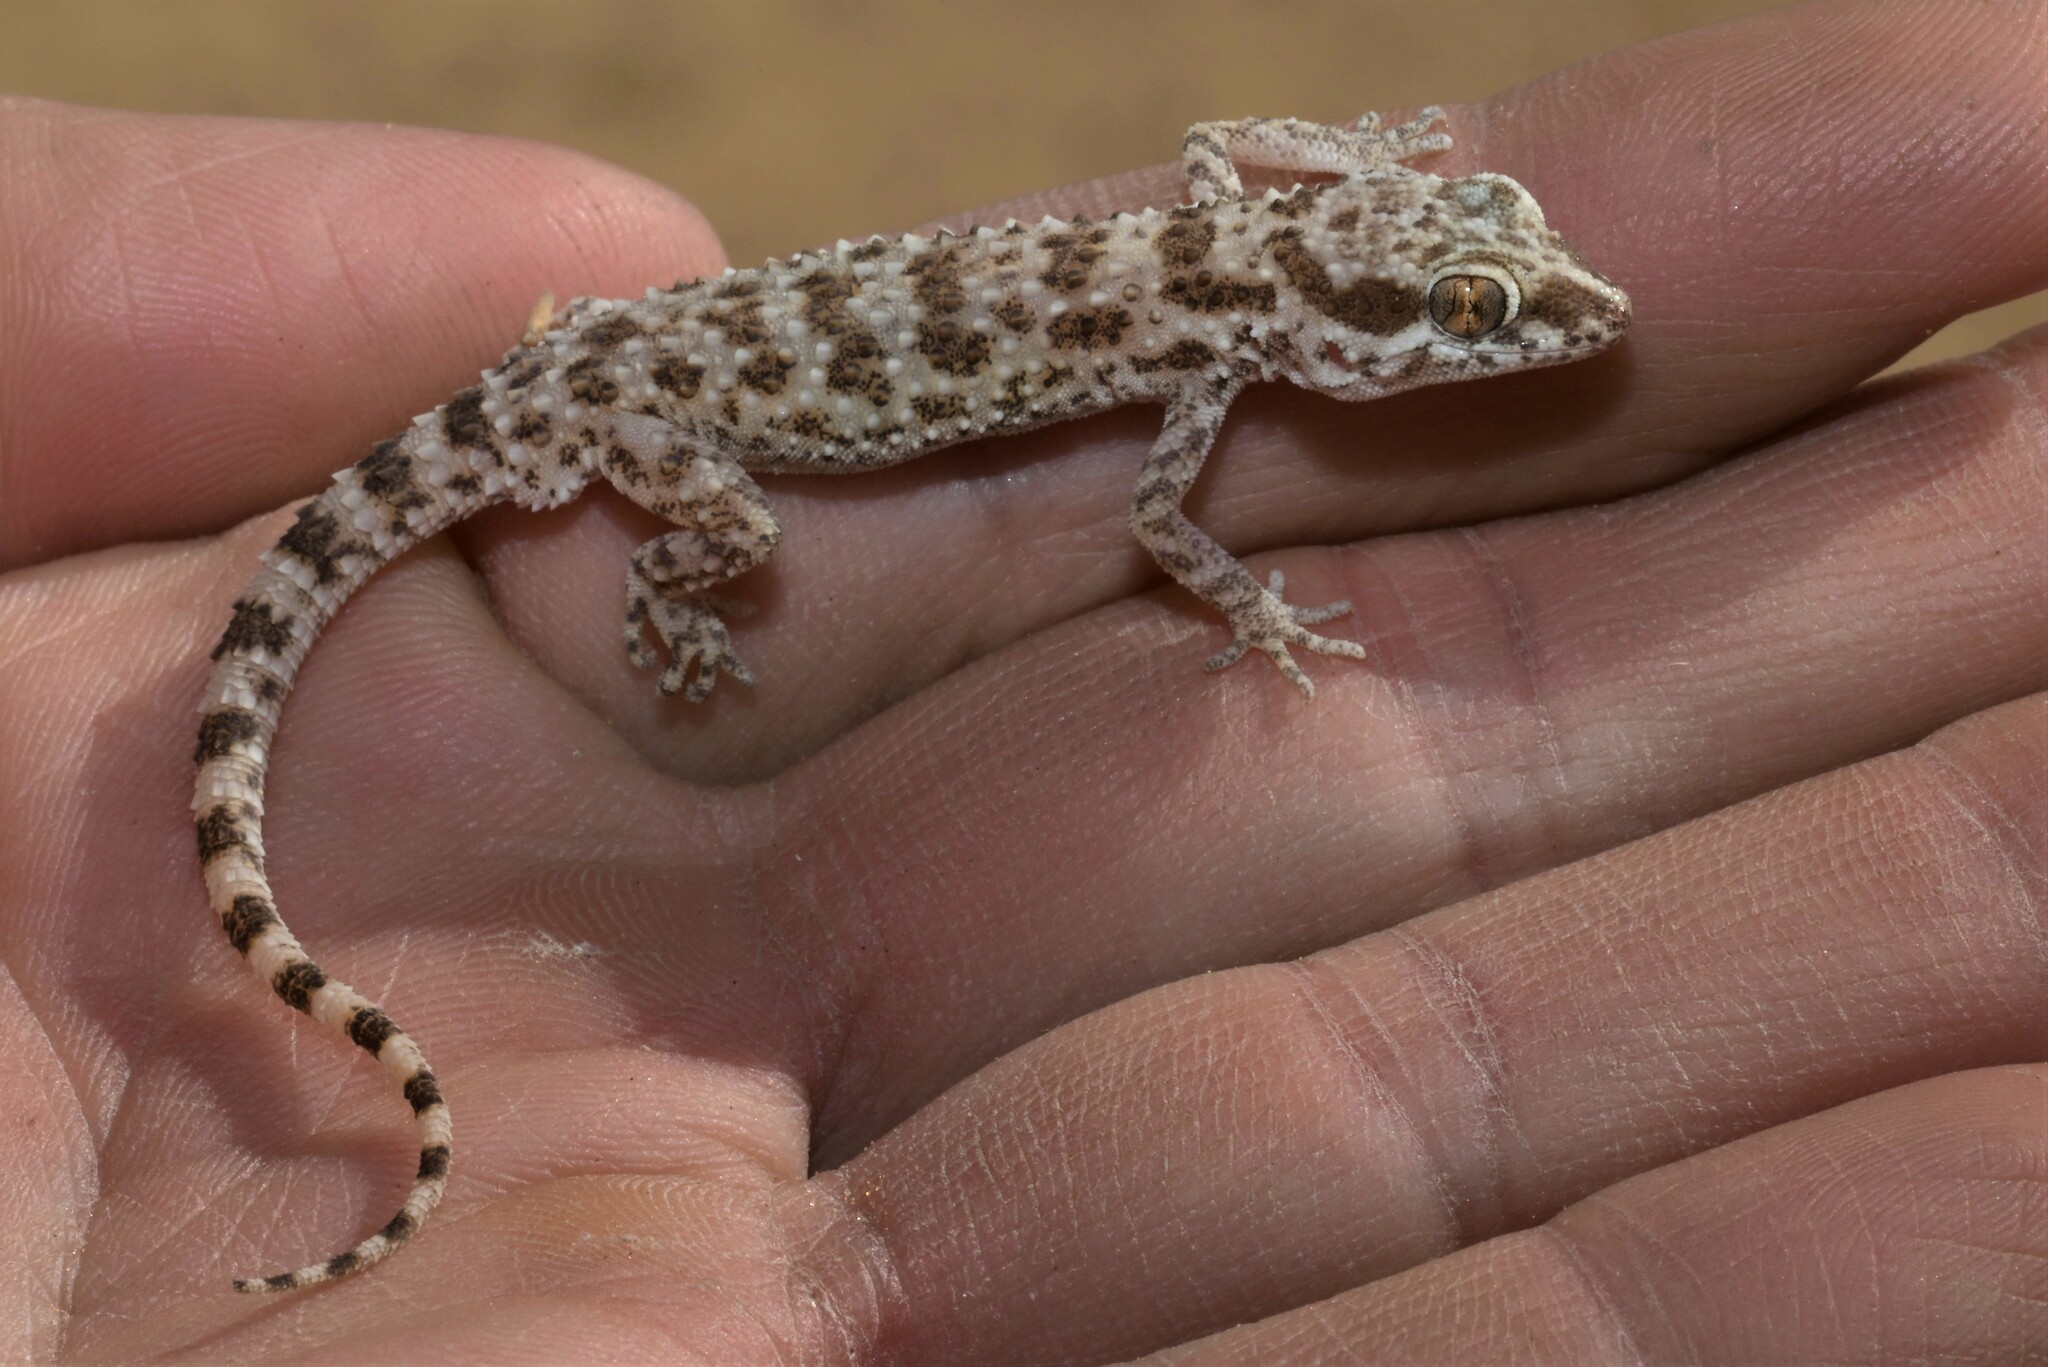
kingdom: Animalia
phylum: Chordata
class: Squamata
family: Gekkonidae
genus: Bunopus
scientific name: Bunopus tuberculatus
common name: Southern tuberculated gecko
